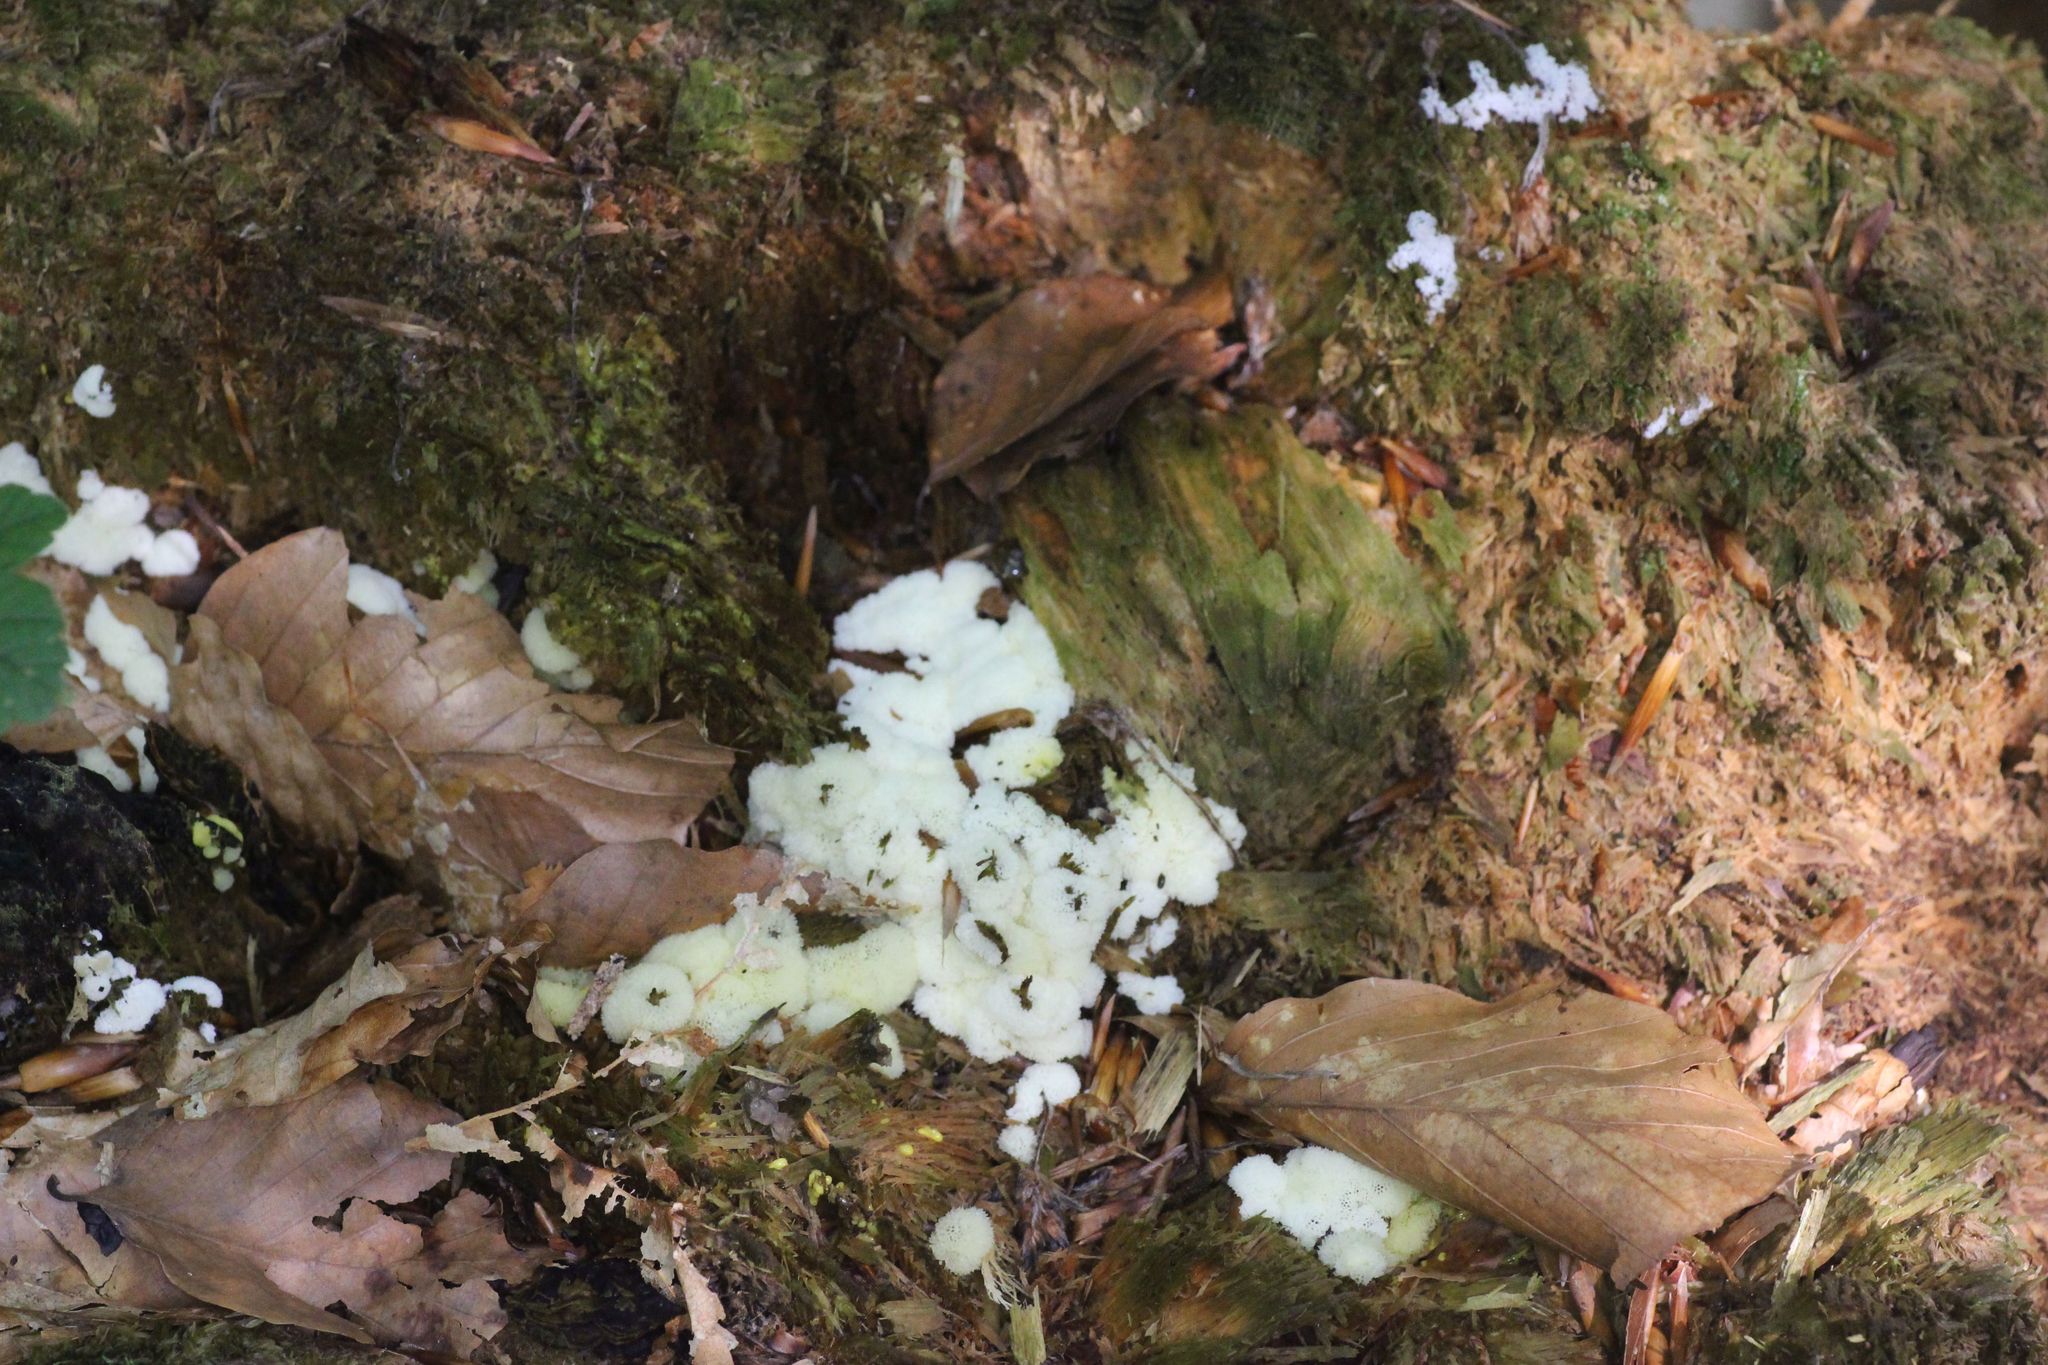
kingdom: Protozoa
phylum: Mycetozoa
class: Protosteliomycetes
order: Ceratiomyxales
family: Ceratiomyxaceae
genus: Ceratiomyxa
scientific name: Ceratiomyxa fruticulosa
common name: Honeycomb coral slime mold
